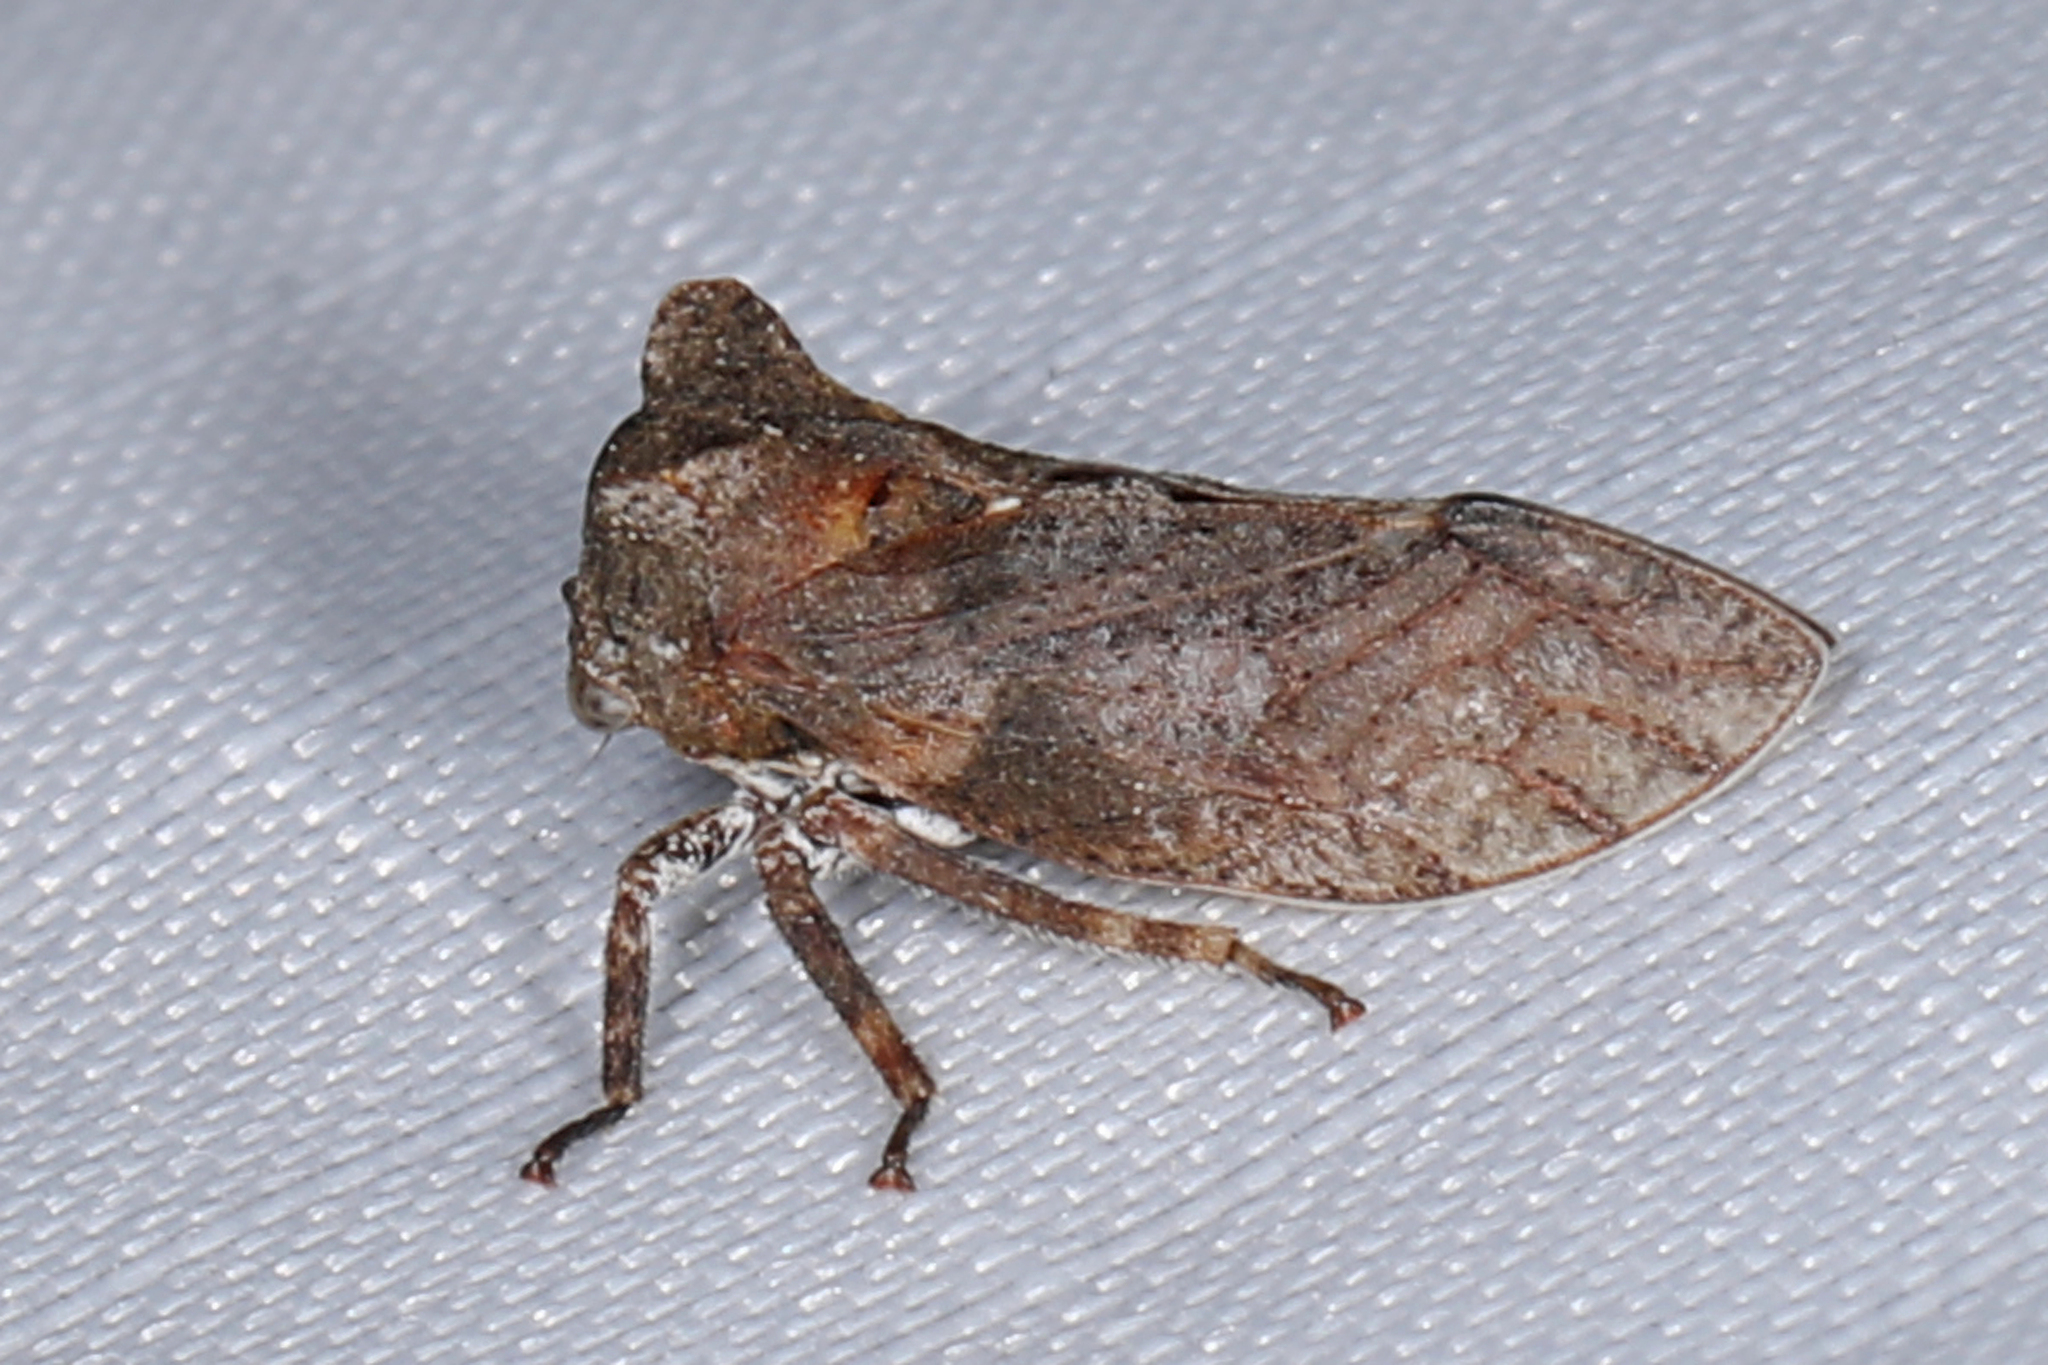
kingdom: Animalia
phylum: Arthropoda
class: Insecta
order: Hemiptera
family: Membracidae
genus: Microcentrus
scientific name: Microcentrus perdita
